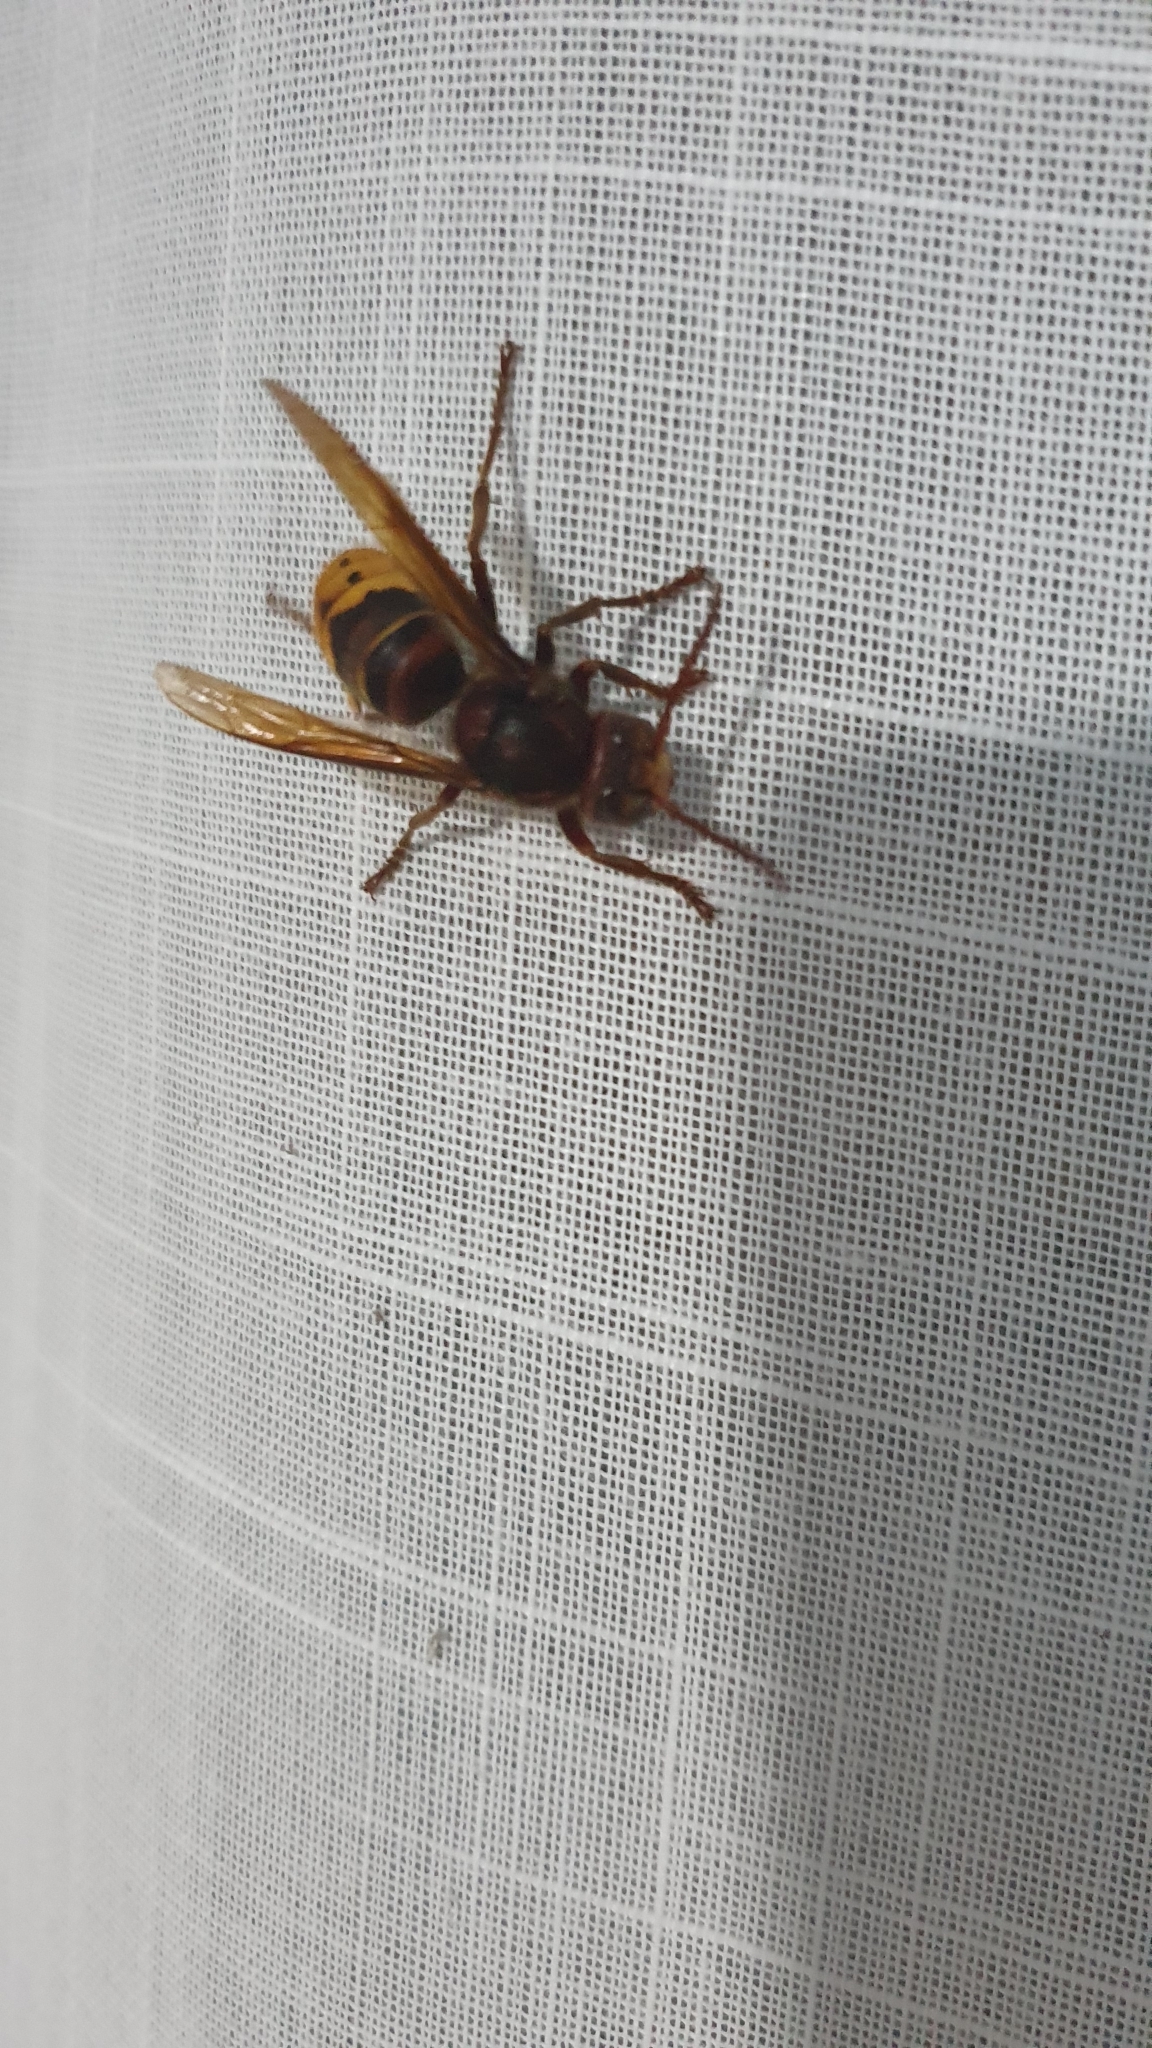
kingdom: Animalia
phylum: Arthropoda
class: Insecta
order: Hymenoptera
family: Vespidae
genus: Vespa
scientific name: Vespa crabro
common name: Hornet
